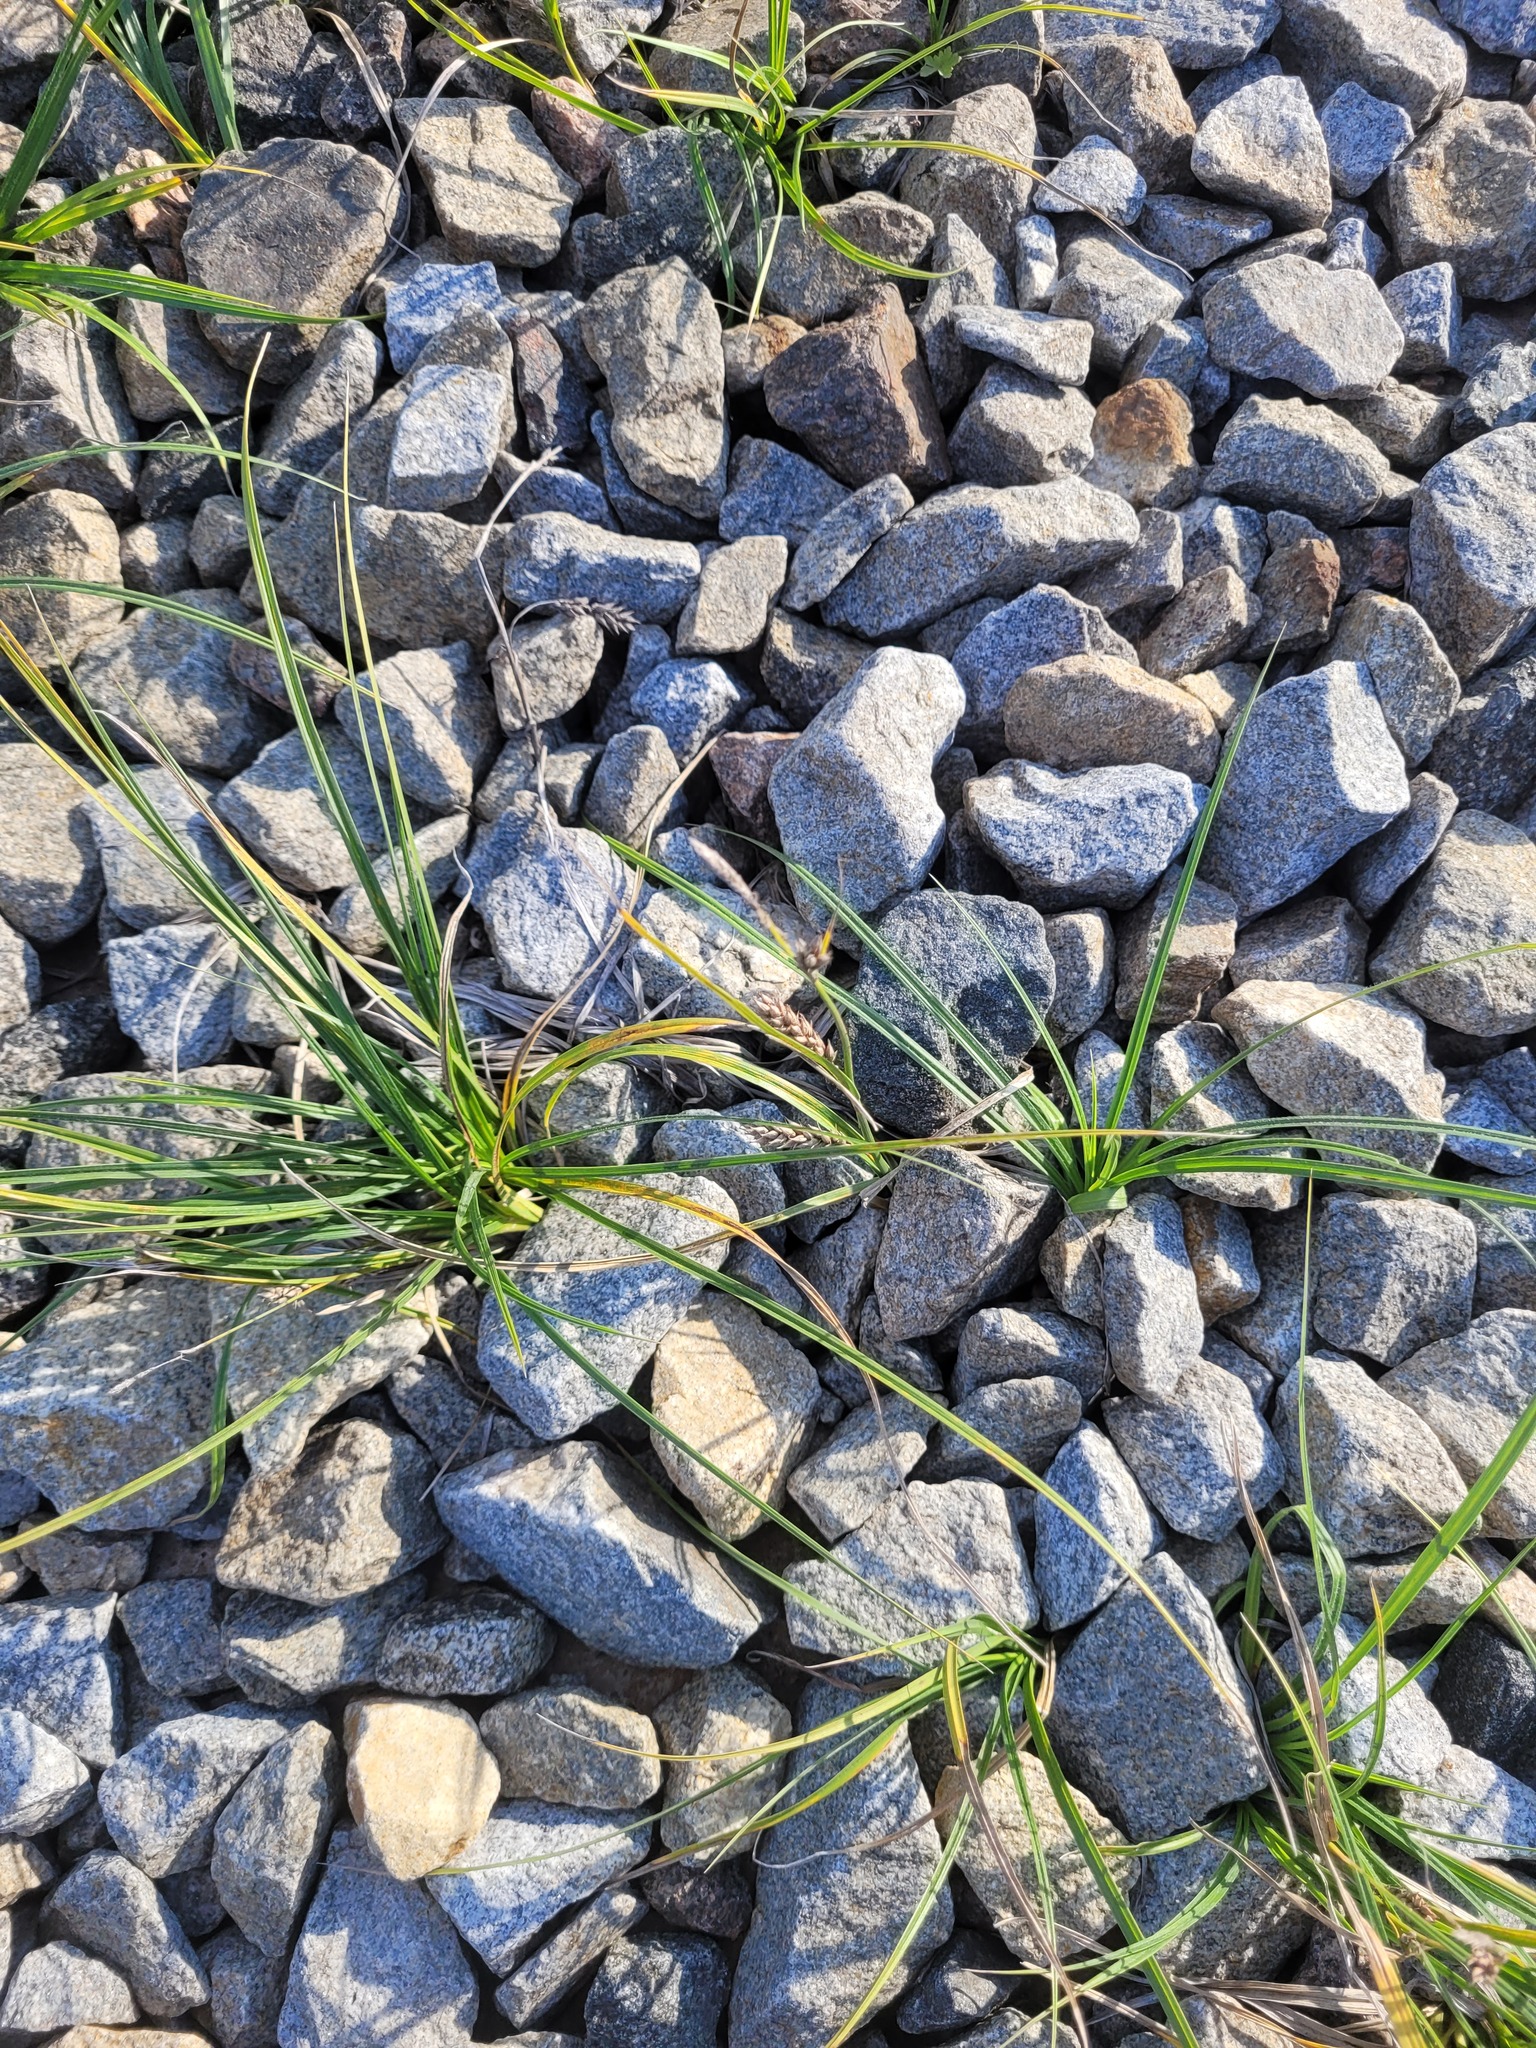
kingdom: Plantae
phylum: Tracheophyta
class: Liliopsida
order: Poales
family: Cyperaceae
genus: Carex
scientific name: Carex hirta
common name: Hairy sedge
